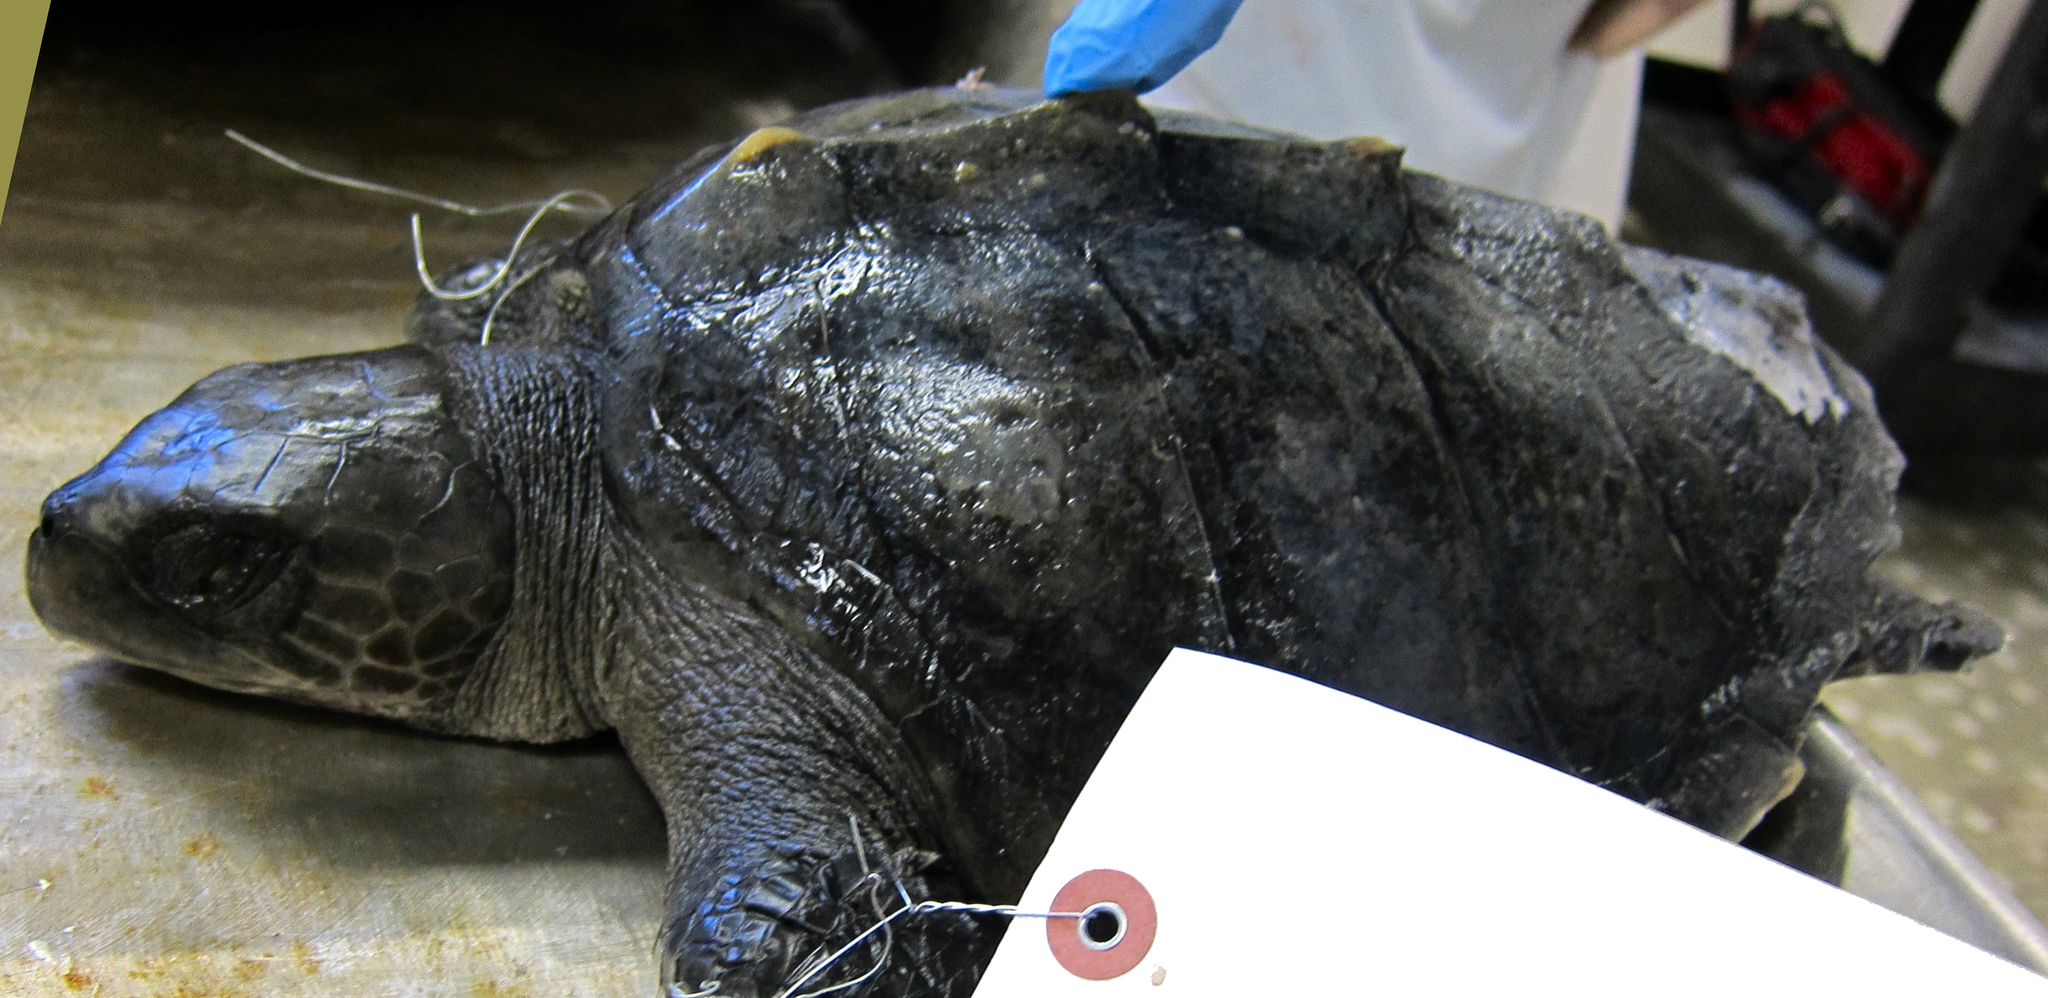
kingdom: Animalia
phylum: Chordata
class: Testudines
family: Cheloniidae
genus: Lepidochelys
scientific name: Lepidochelys olivacea
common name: Olive ridley
